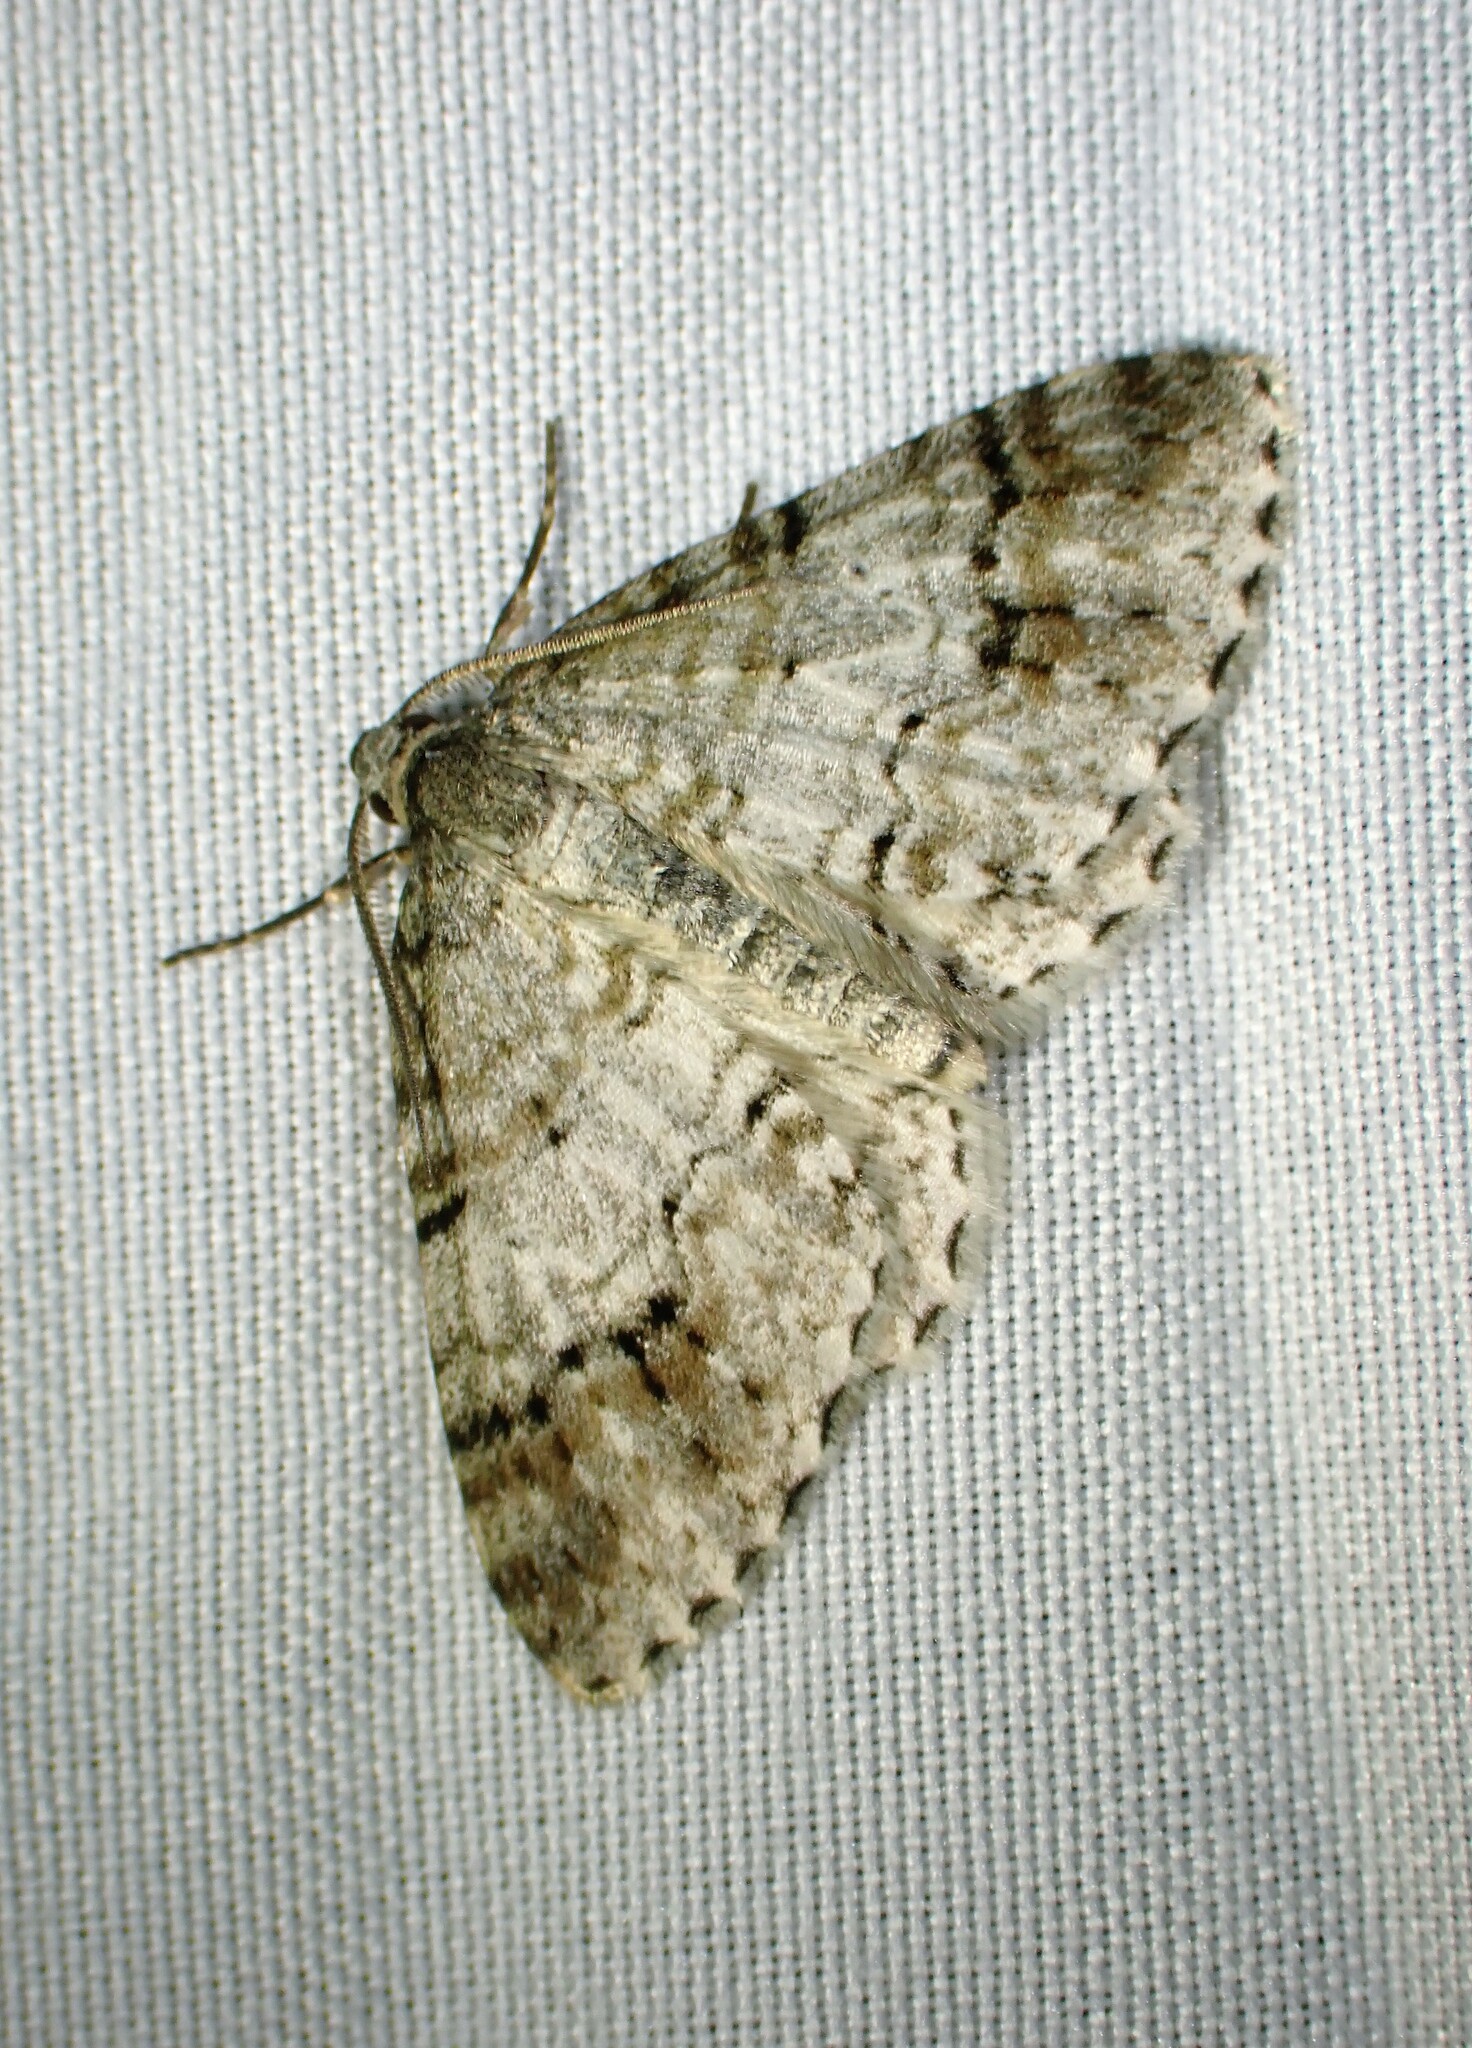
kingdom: Animalia
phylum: Arthropoda
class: Insecta
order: Lepidoptera
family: Geometridae
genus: Venusia
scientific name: Venusia cambrica
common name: Welsh wave
